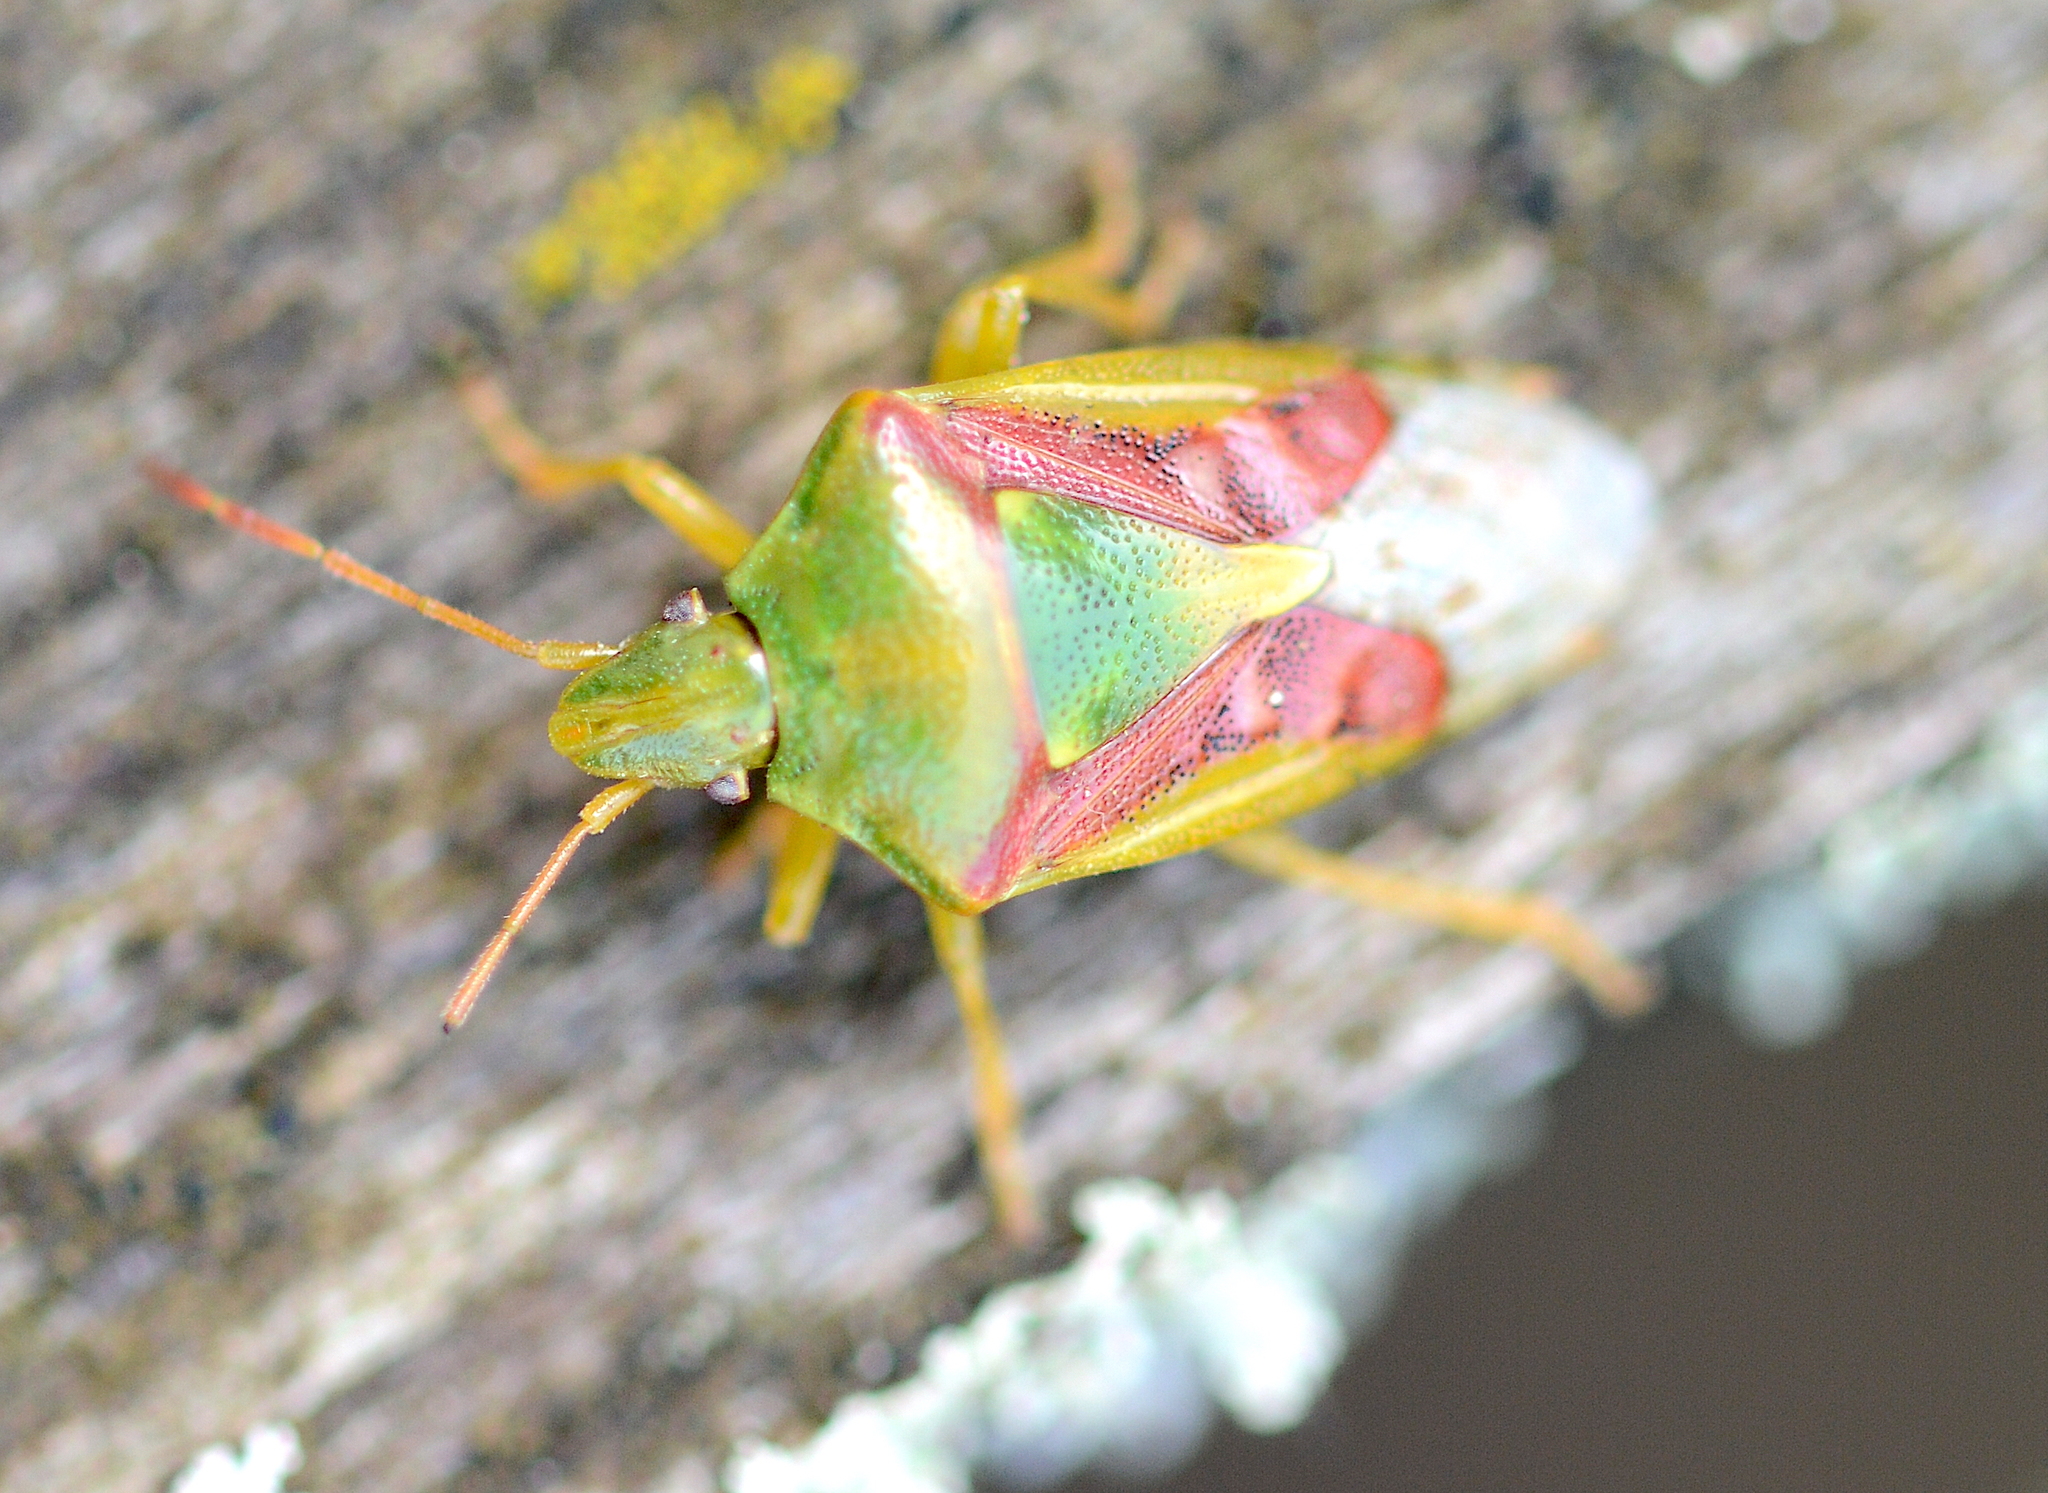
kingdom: Animalia
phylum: Arthropoda
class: Insecta
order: Hemiptera
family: Acanthosomatidae
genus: Cyphostethus
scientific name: Cyphostethus tristriatus
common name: Juniper shieldbug
